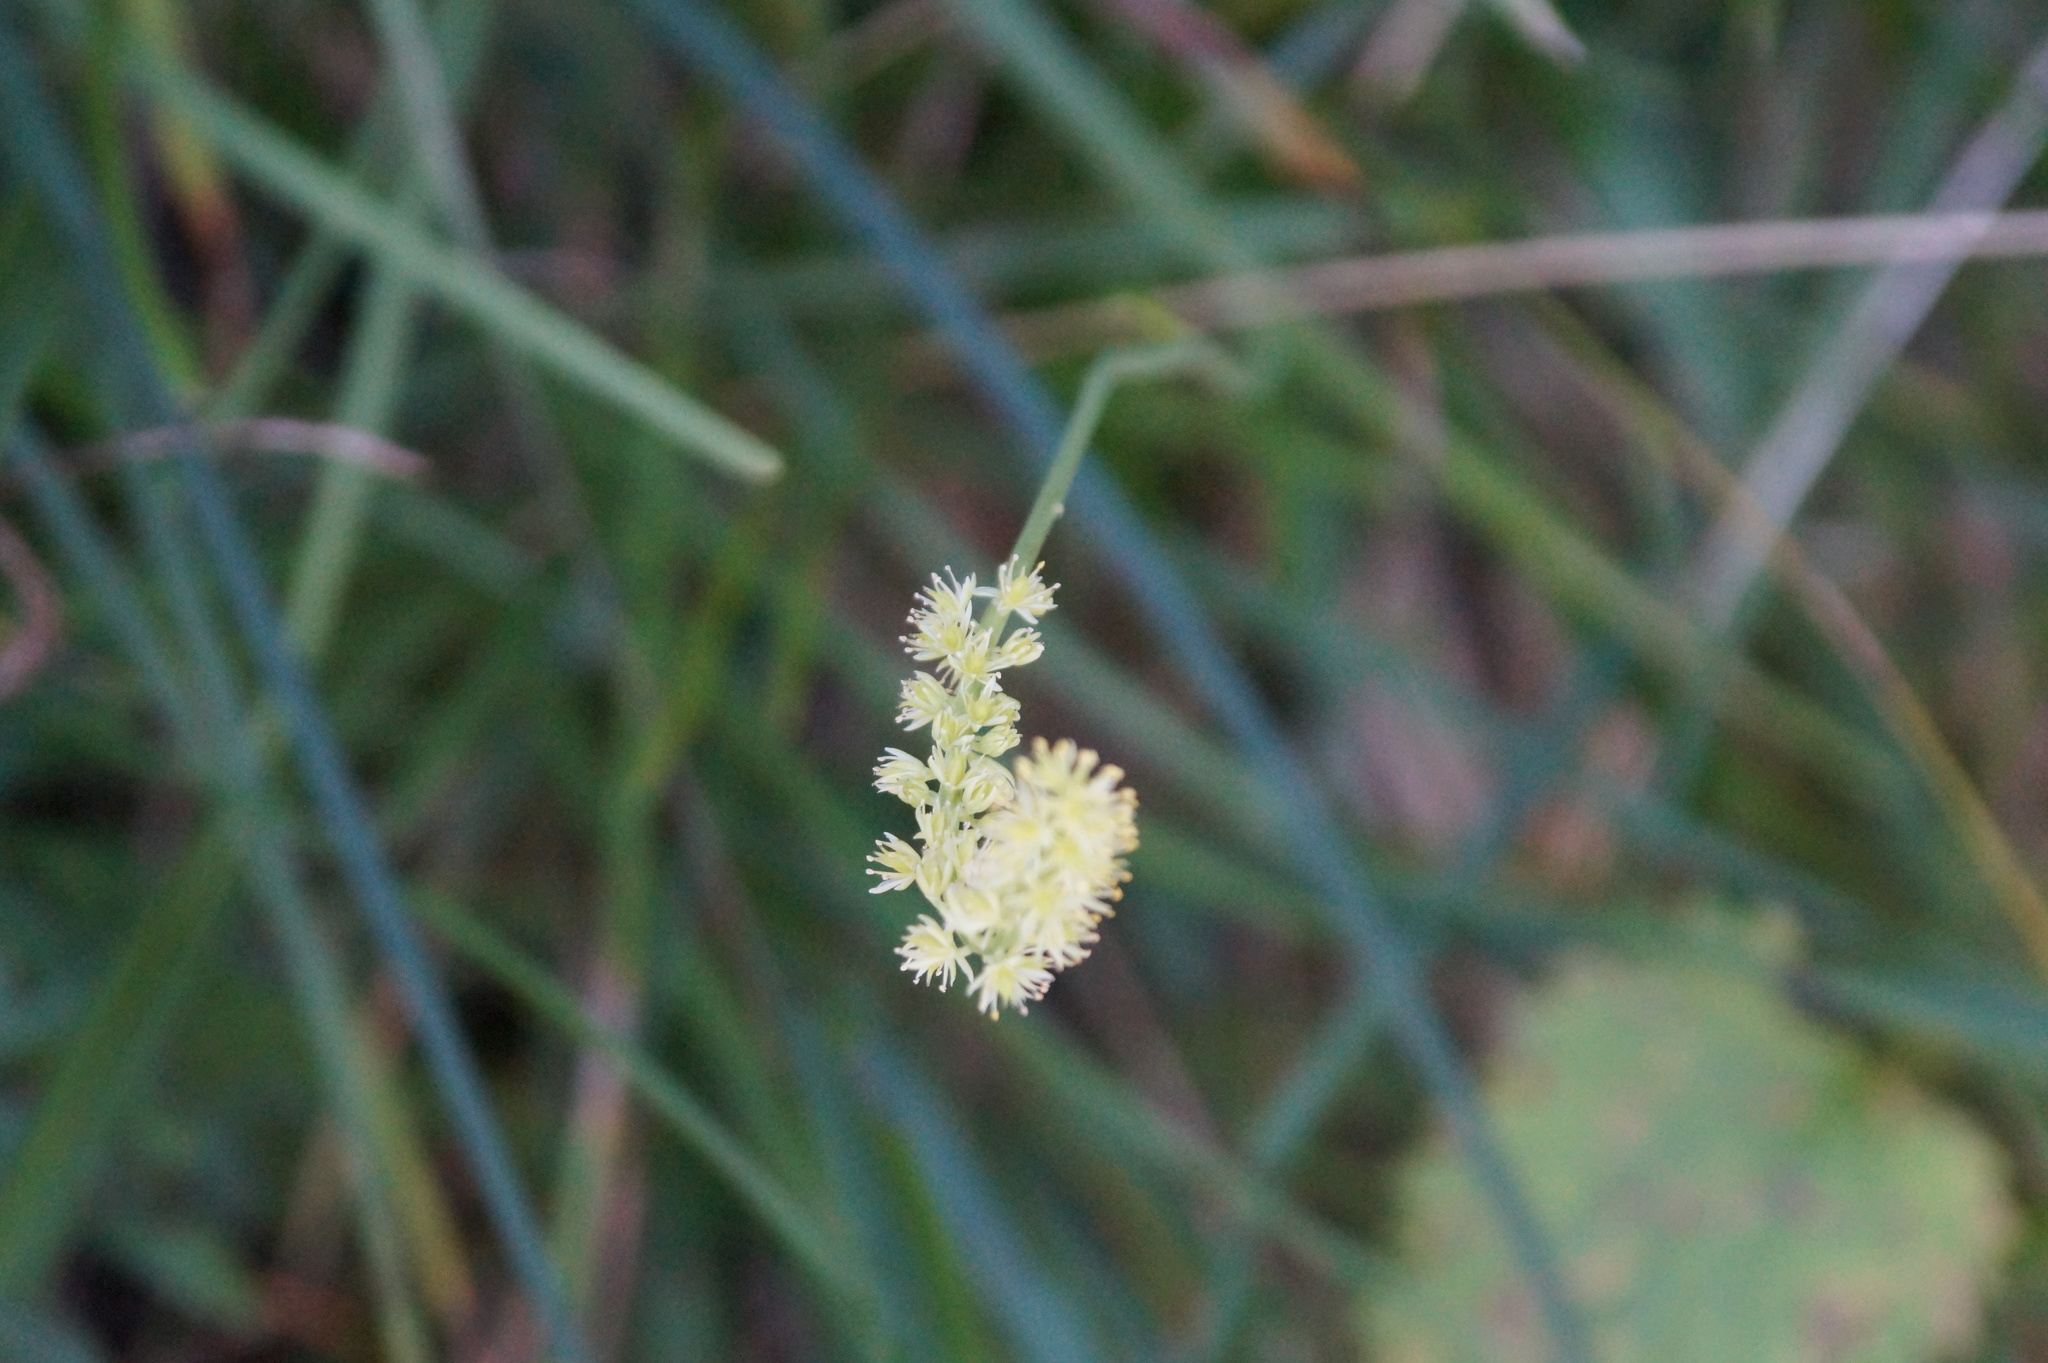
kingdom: Plantae
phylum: Tracheophyta
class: Liliopsida
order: Alismatales
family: Tofieldiaceae
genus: Tofieldia
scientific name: Tofieldia calyculata
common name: German-asphodel
